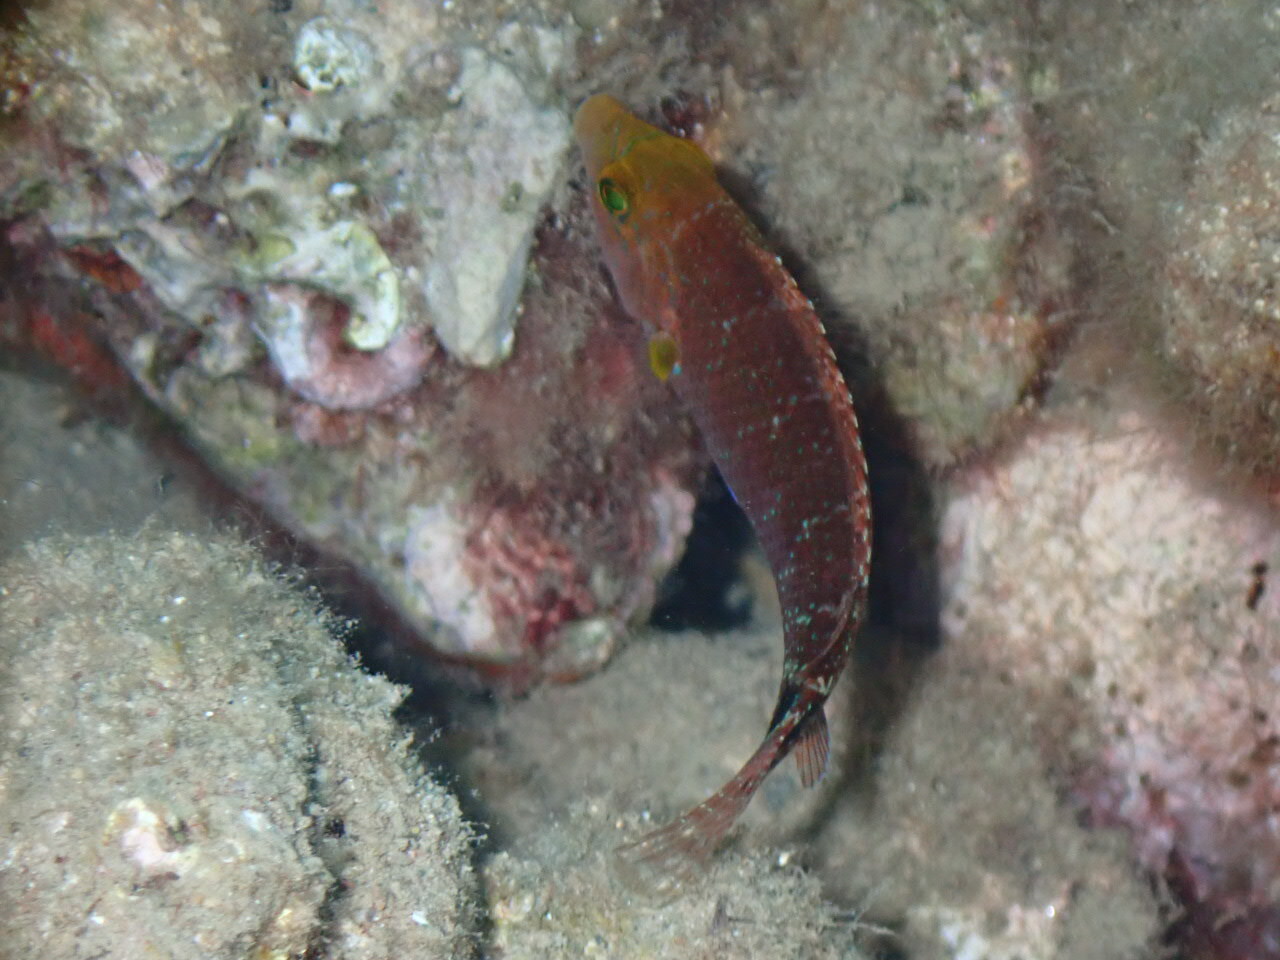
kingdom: Animalia
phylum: Chordata
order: Perciformes
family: Labridae
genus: Symphodus
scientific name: Symphodus mediterraneus
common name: Axillary wrasse
